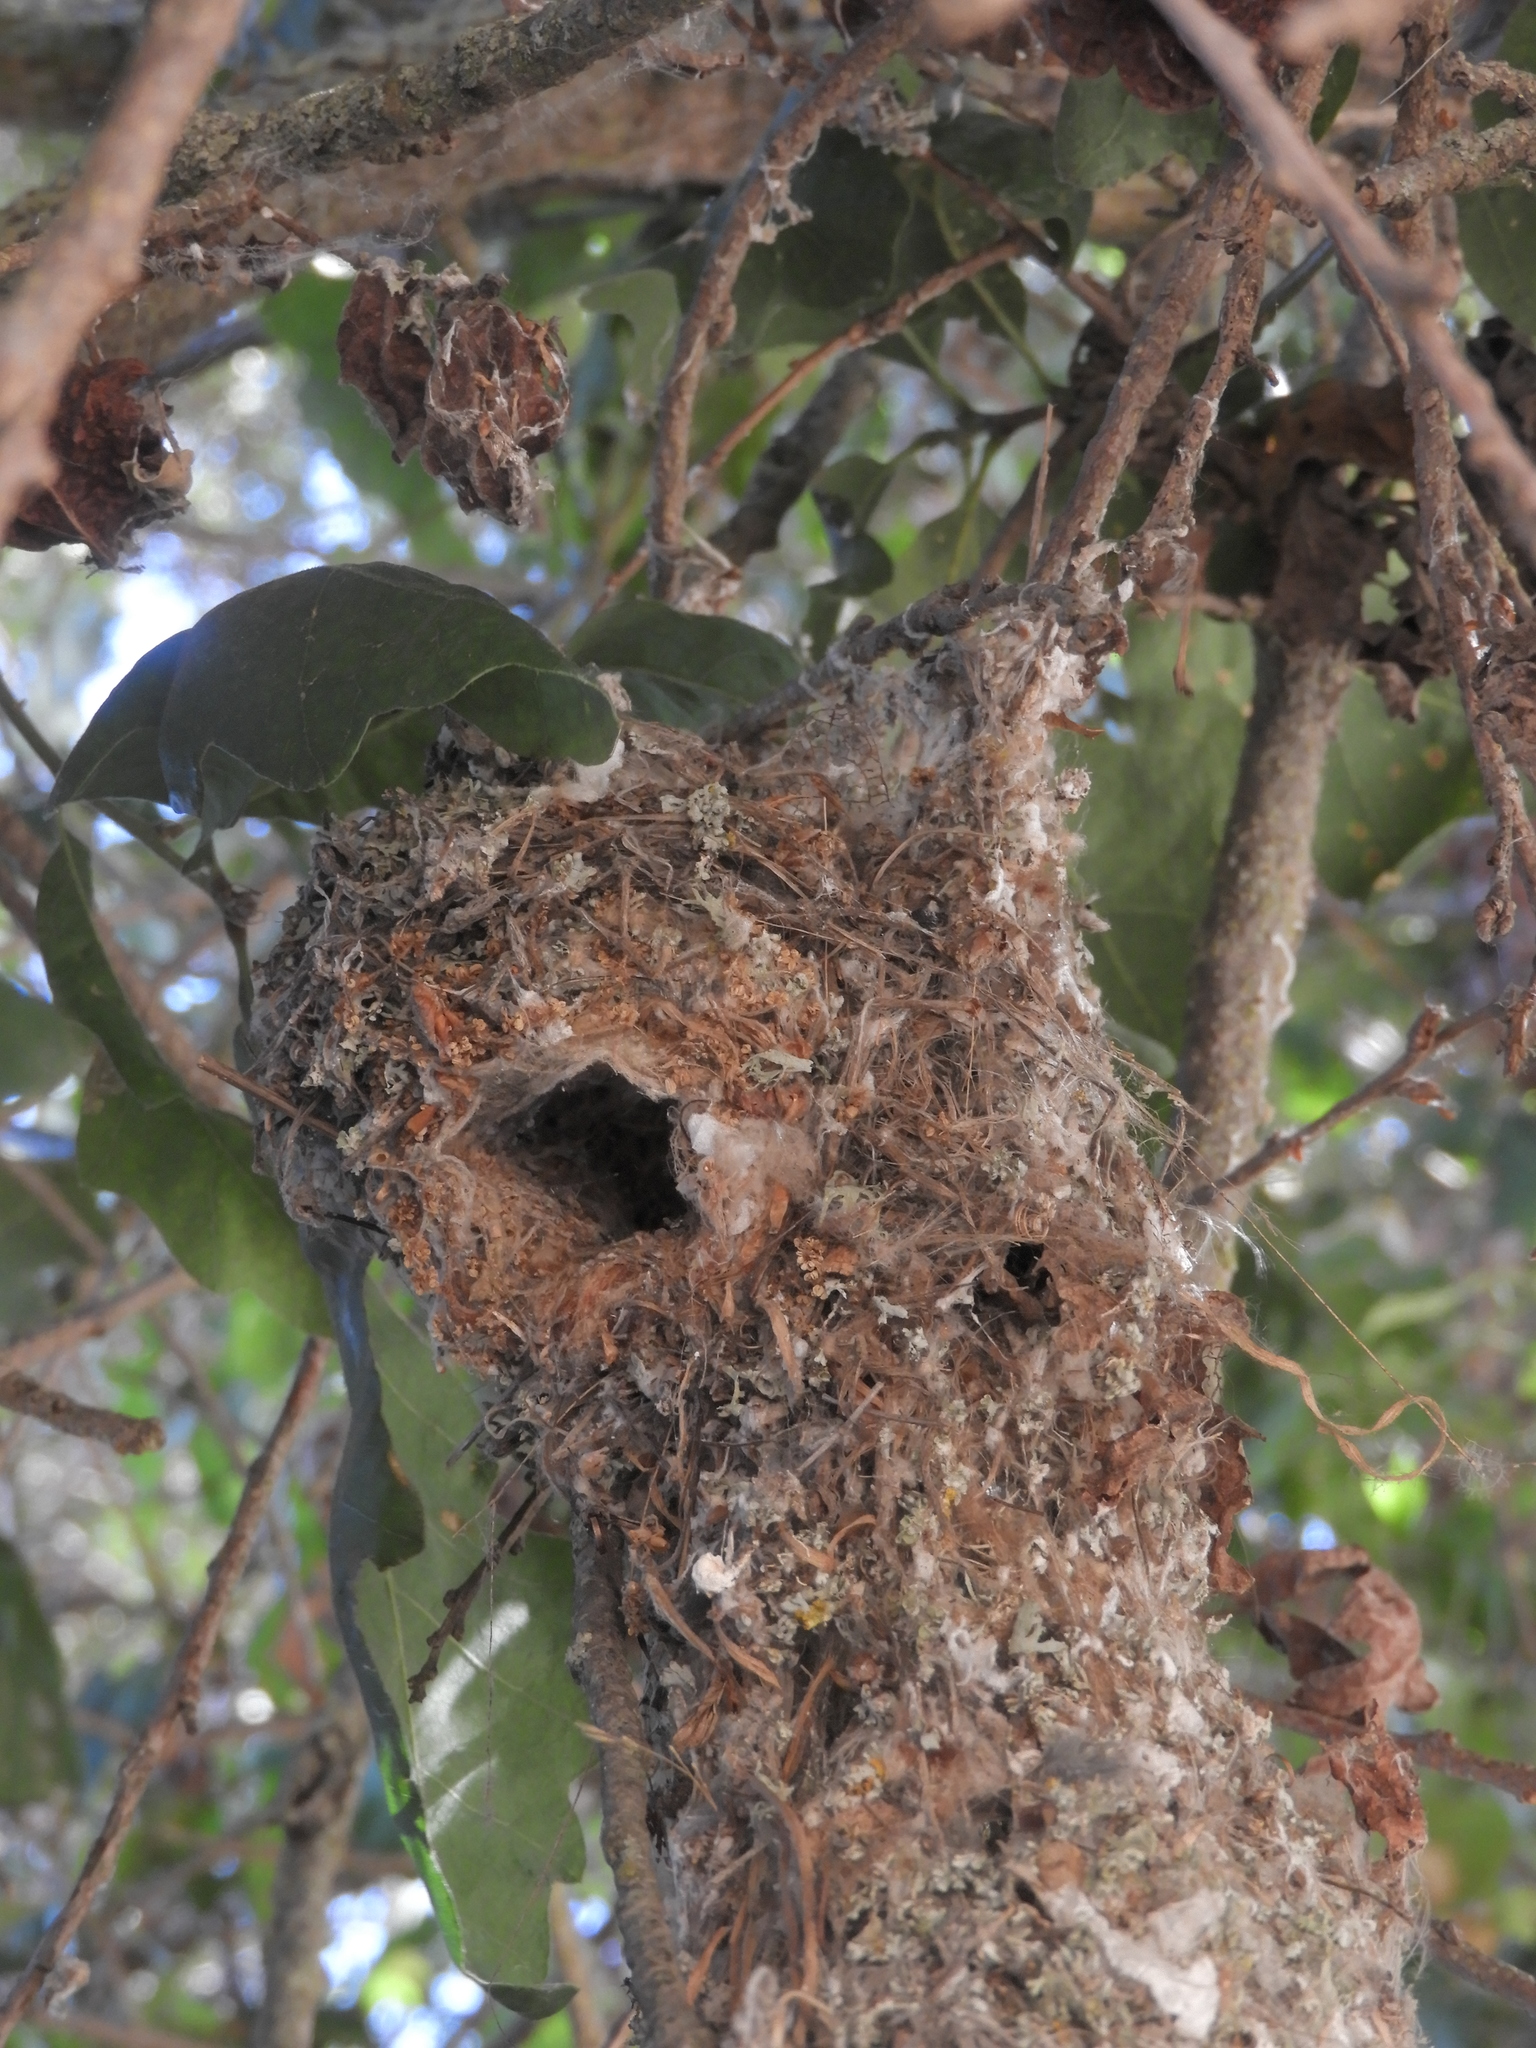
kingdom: Animalia
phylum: Chordata
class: Aves
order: Passeriformes
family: Aegithalidae
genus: Psaltriparus
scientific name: Psaltriparus minimus
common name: American bushtit
